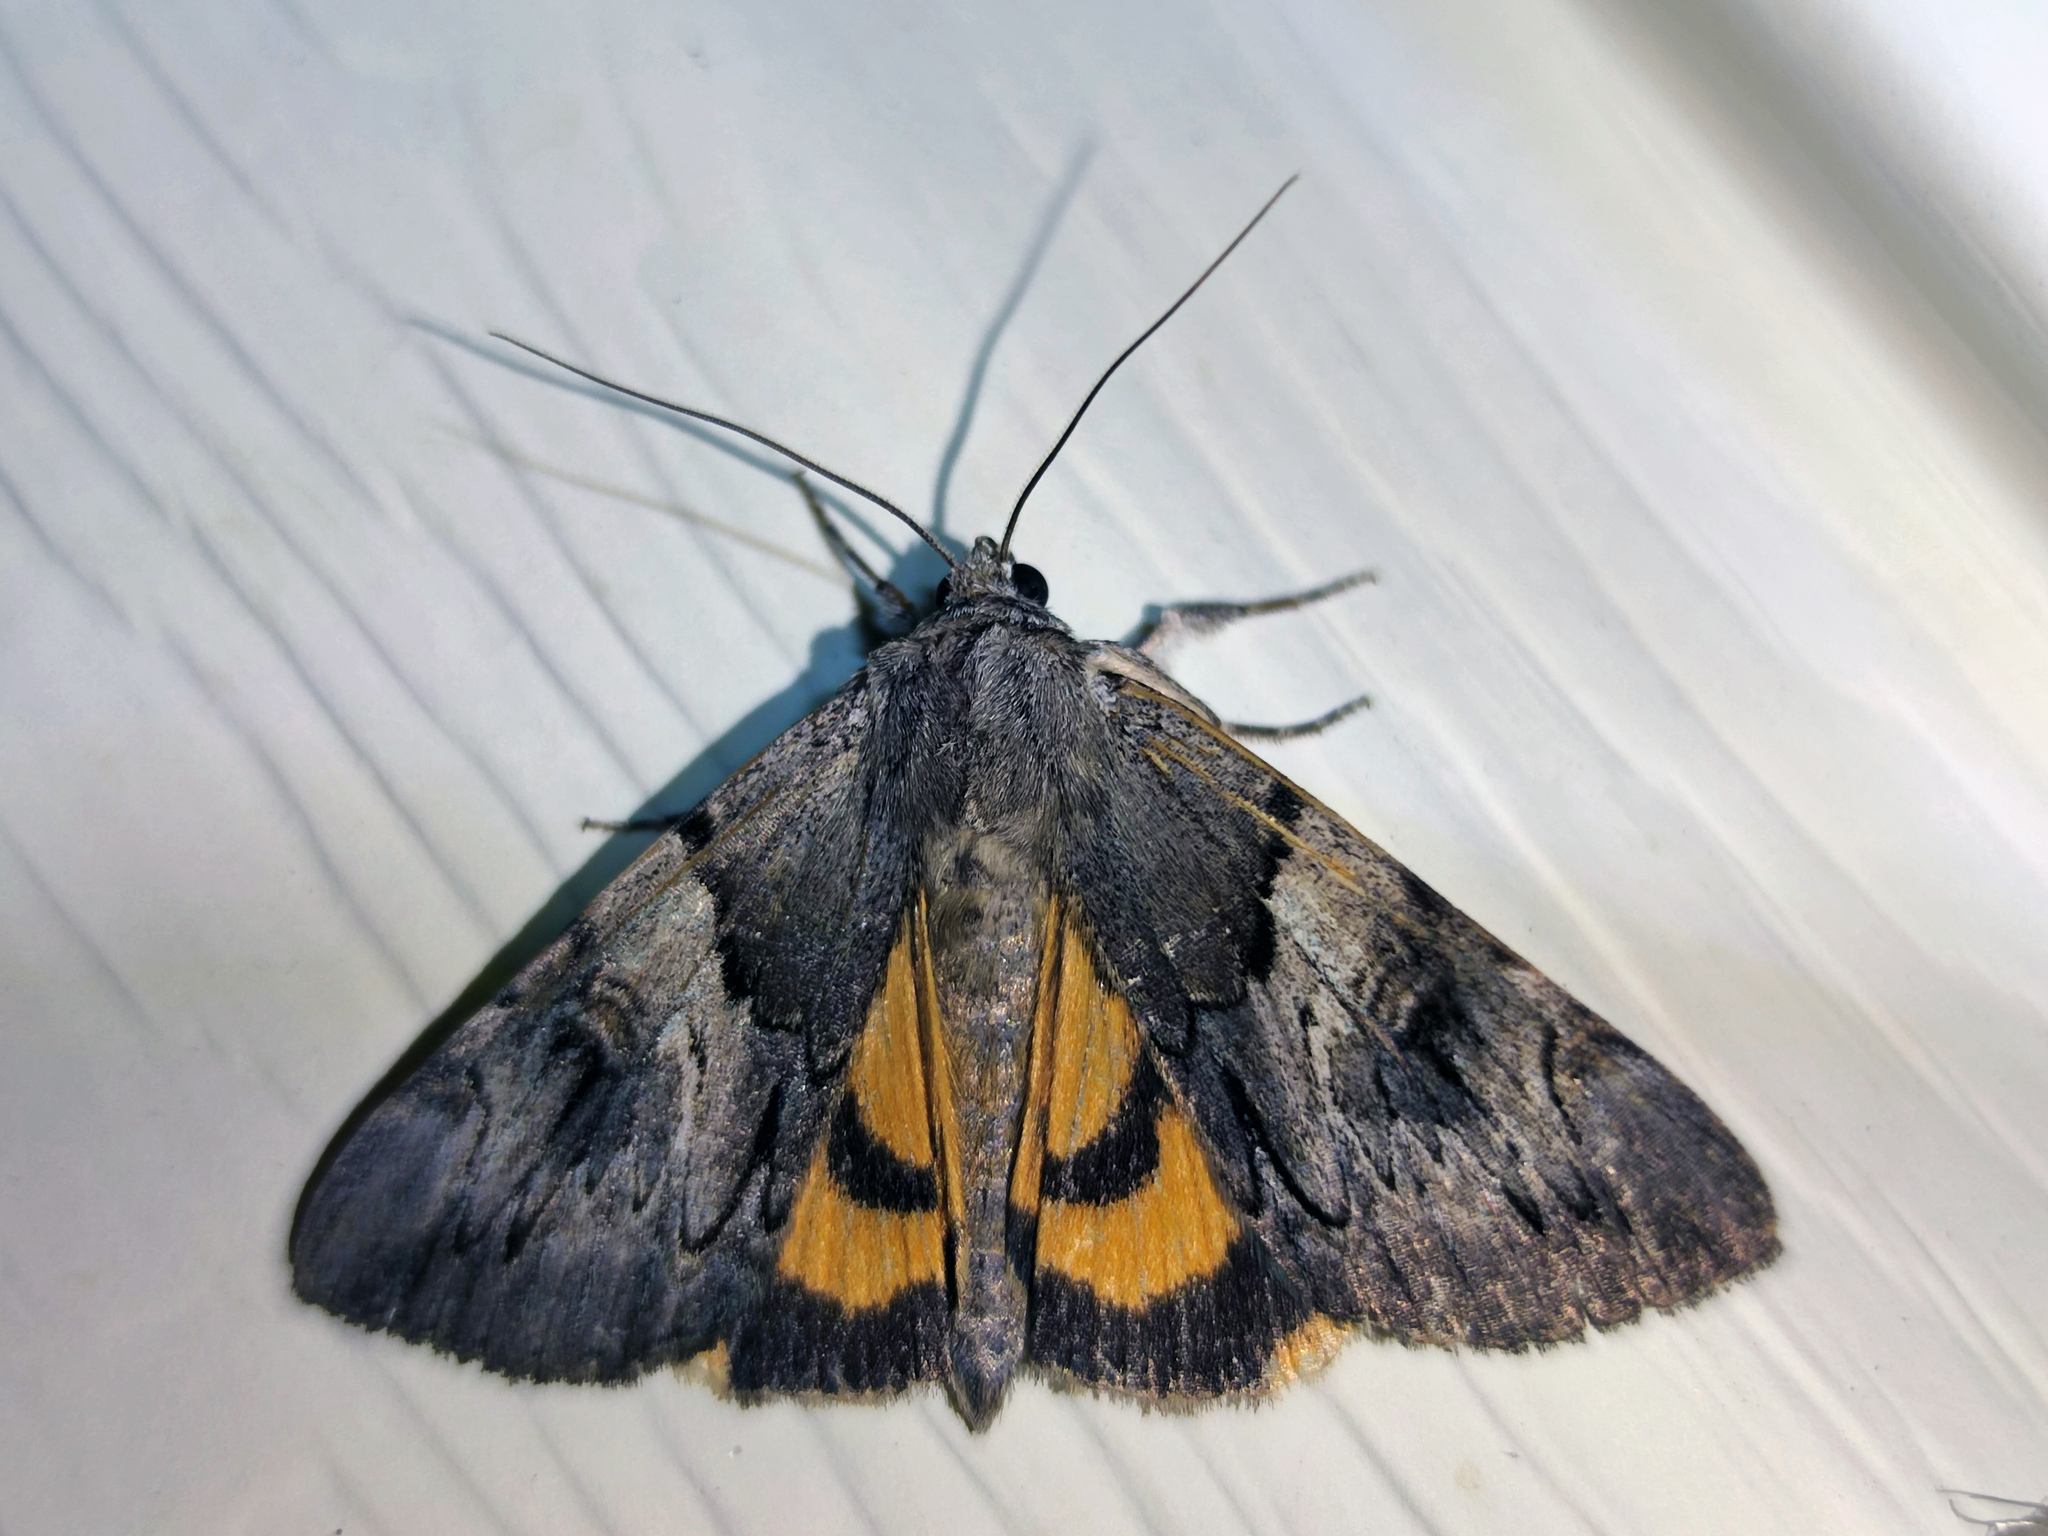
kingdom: Animalia
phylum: Arthropoda
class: Insecta
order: Lepidoptera
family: Erebidae
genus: Catocala
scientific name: Catocala fulminea
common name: Yellow bands underwing
